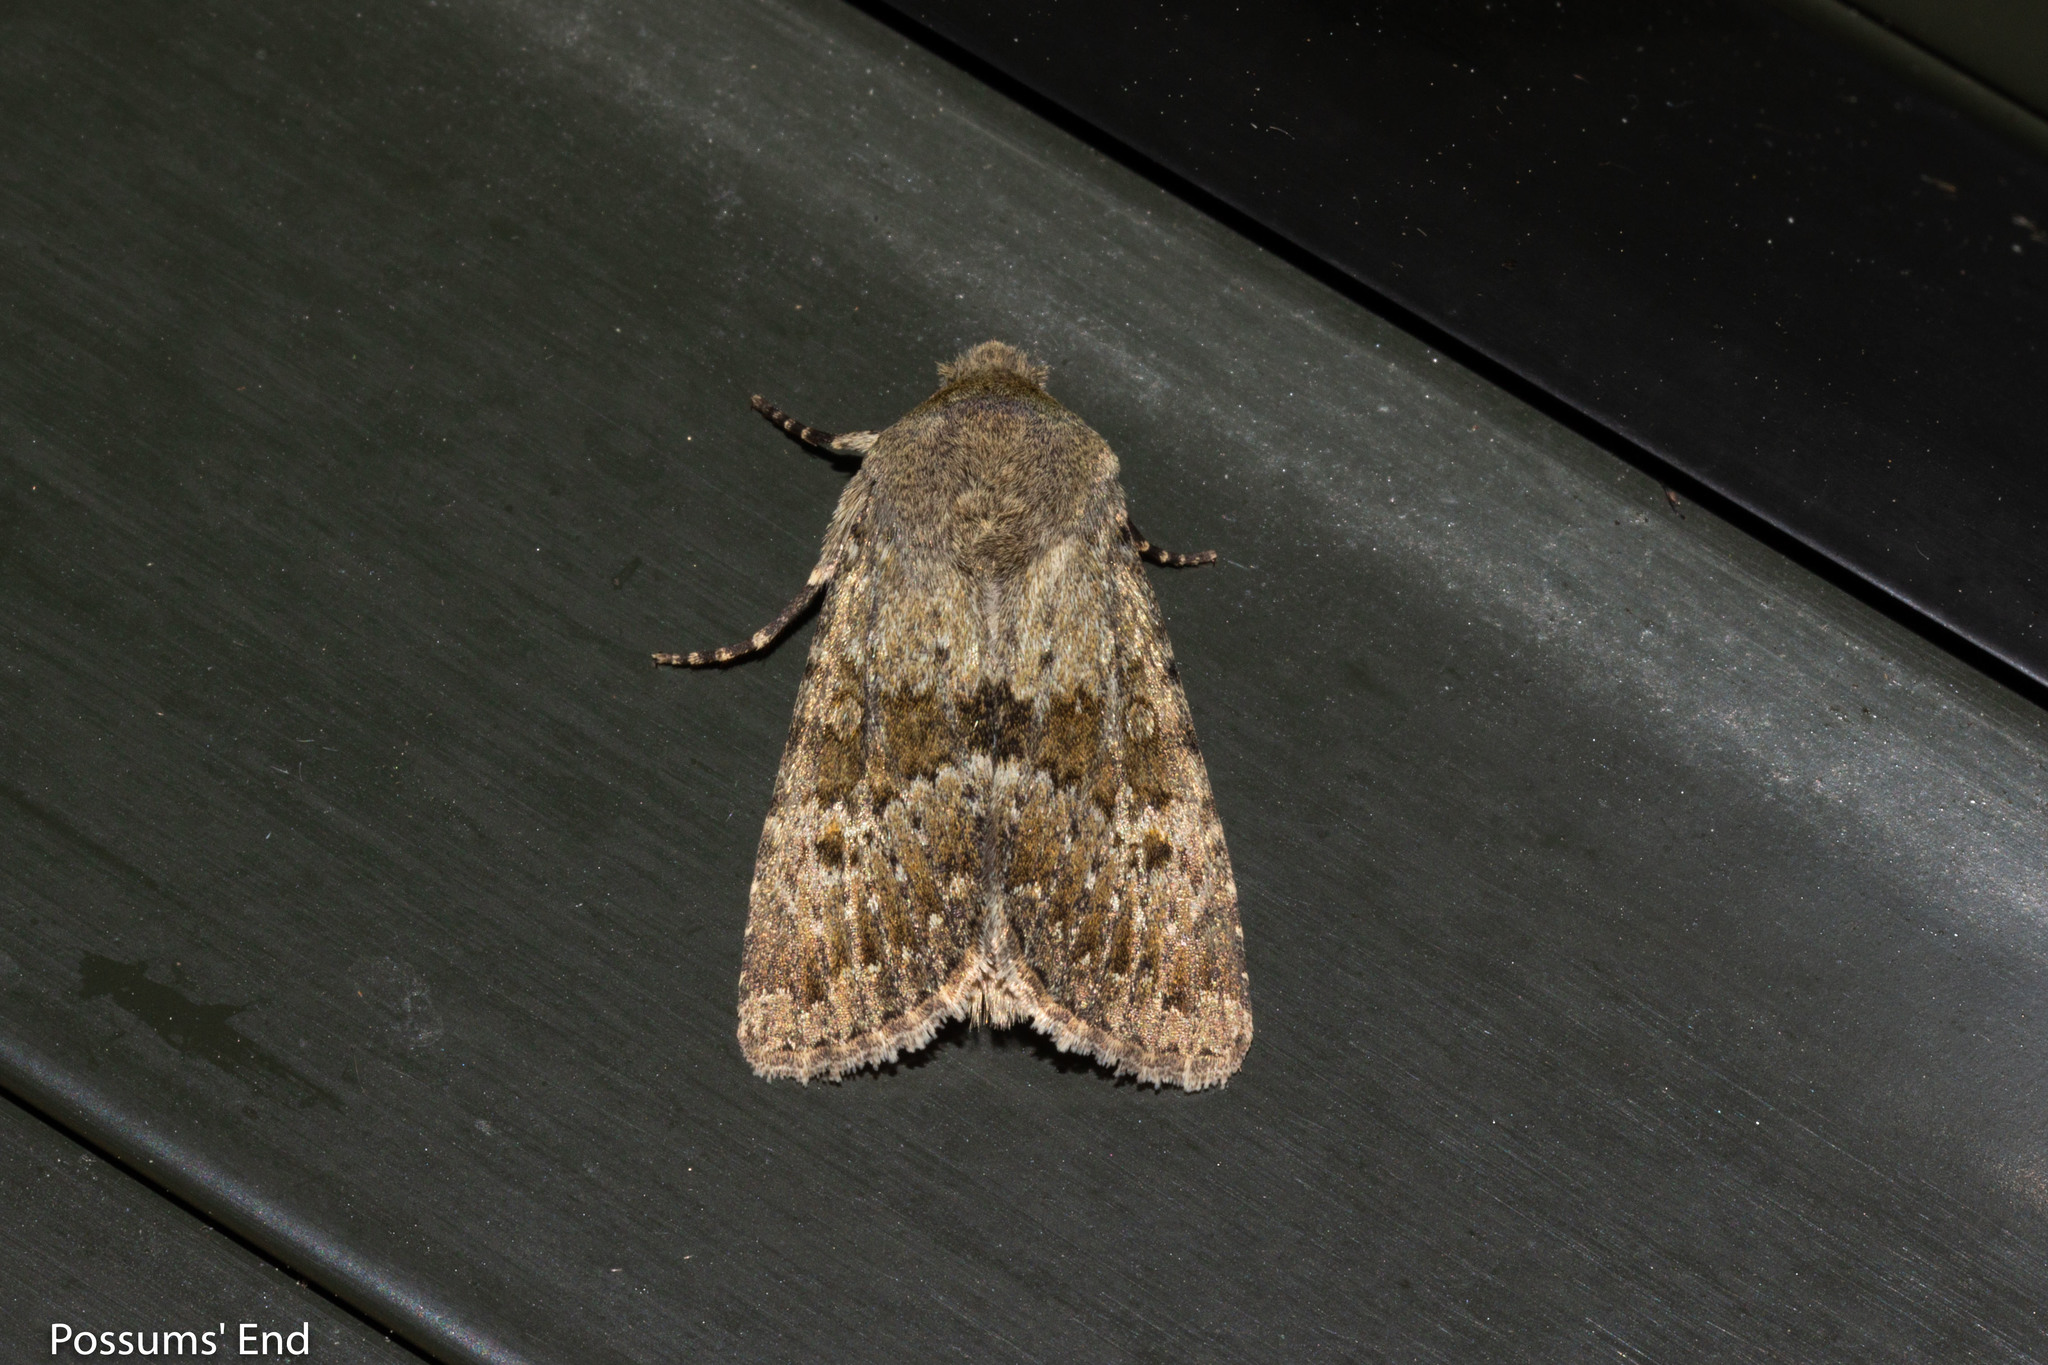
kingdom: Animalia
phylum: Arthropoda
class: Insecta
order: Lepidoptera
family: Noctuidae
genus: Ichneutica
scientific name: Ichneutica moderata
